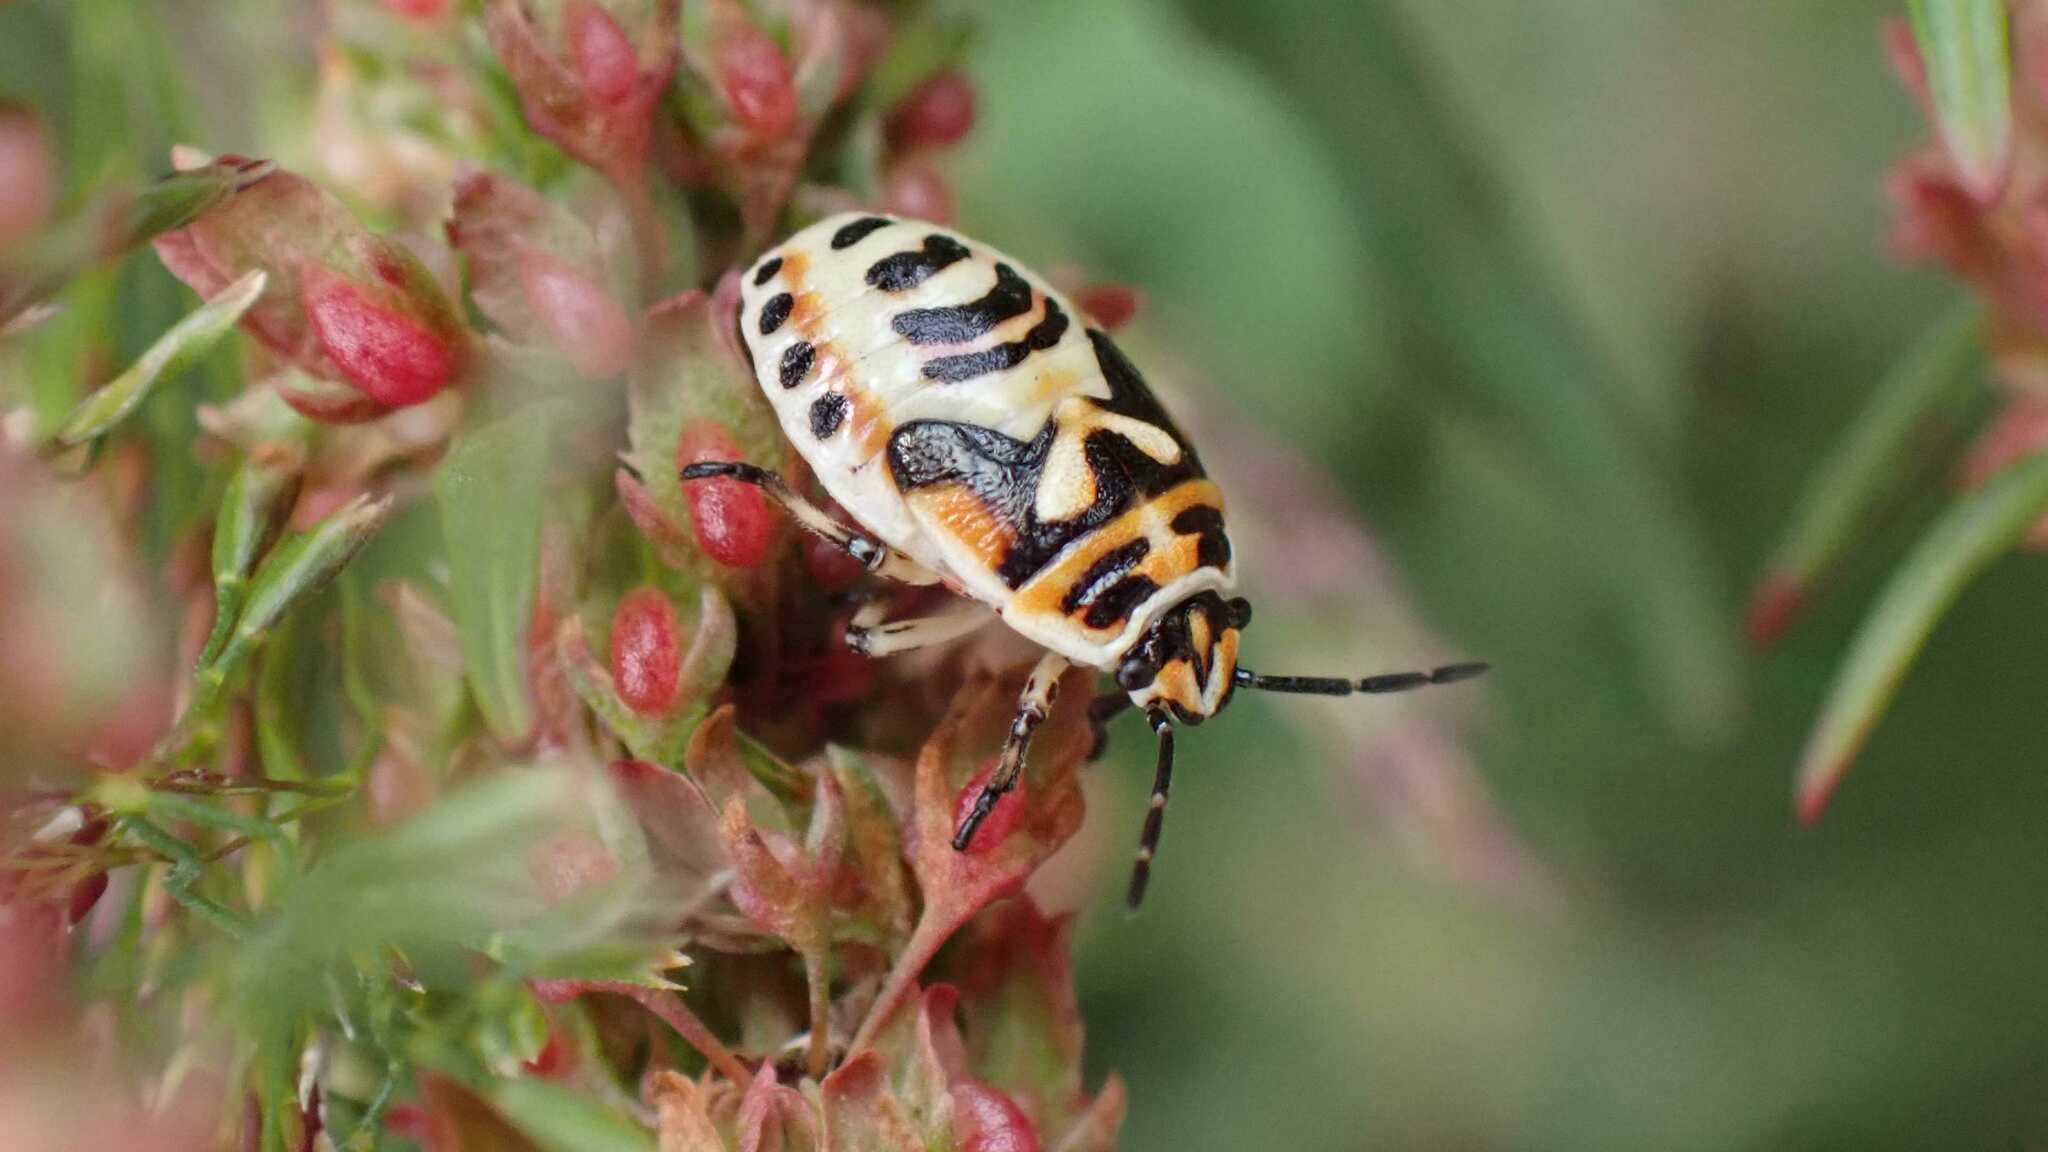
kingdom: Animalia
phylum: Arthropoda
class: Insecta
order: Hemiptera
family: Pentatomidae
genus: Eurydema
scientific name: Eurydema ornata
